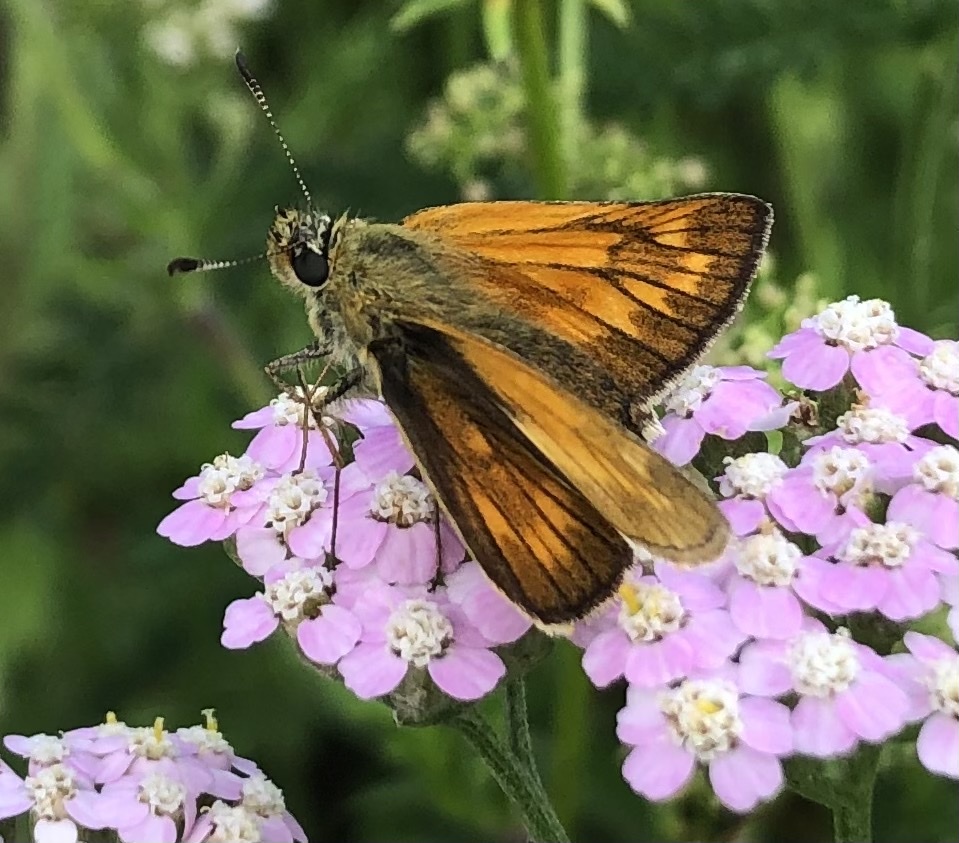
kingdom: Animalia
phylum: Arthropoda
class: Insecta
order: Lepidoptera
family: Hesperiidae
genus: Ochlodes
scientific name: Ochlodes venata
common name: Large skipper
